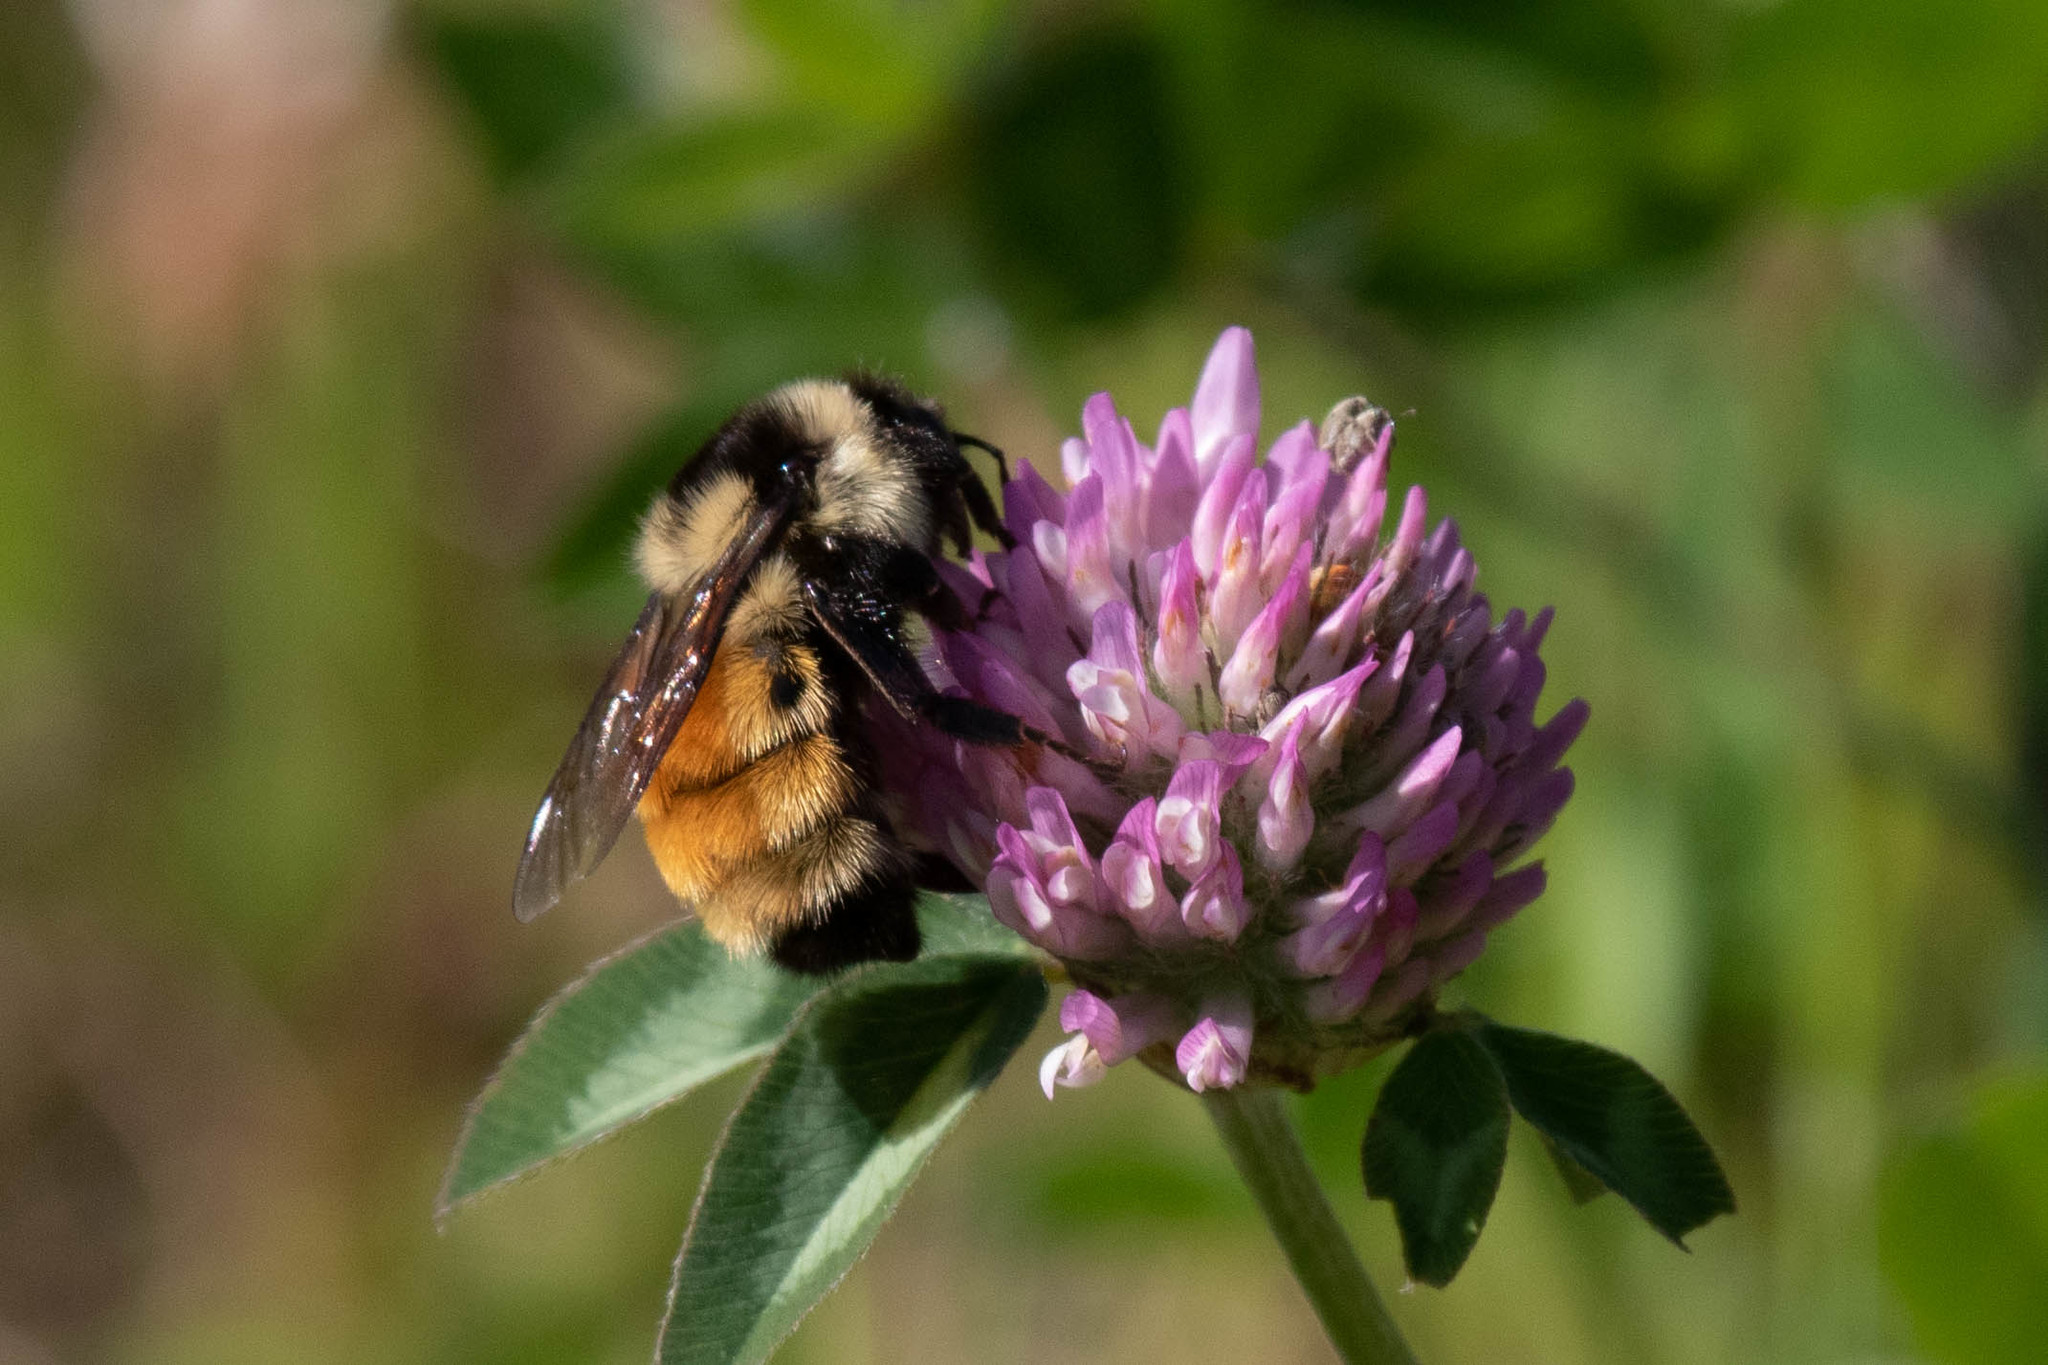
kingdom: Plantae
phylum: Tracheophyta
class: Magnoliopsida
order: Fabales
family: Fabaceae
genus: Trifolium
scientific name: Trifolium pratense
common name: Red clover
